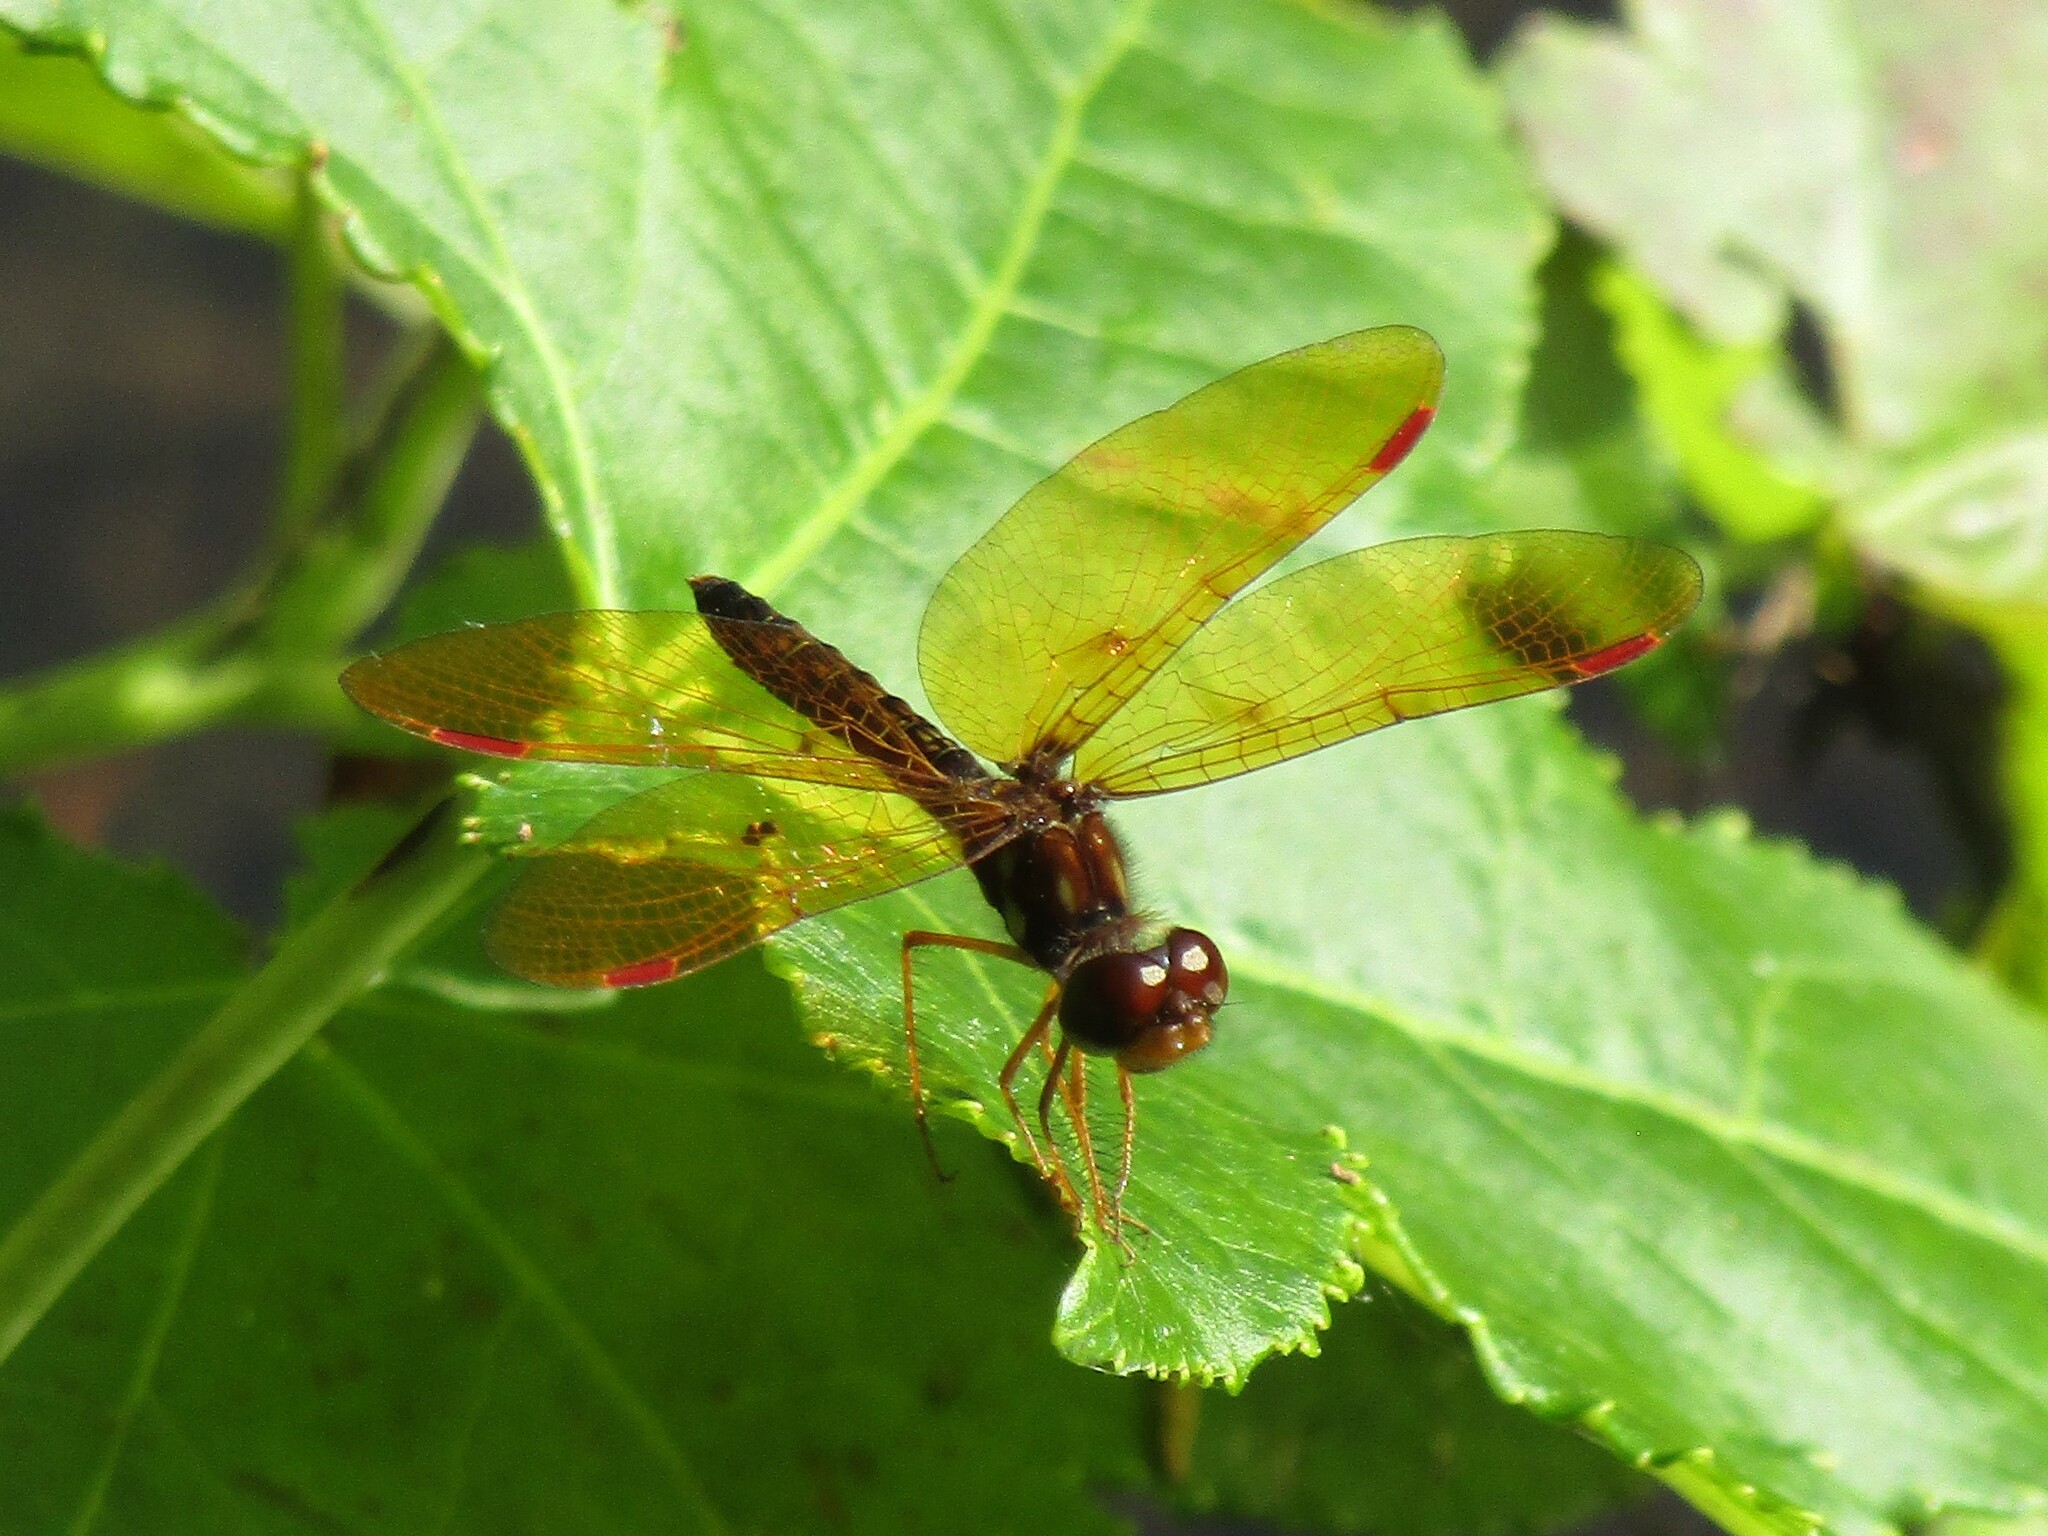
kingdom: Animalia
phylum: Arthropoda
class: Insecta
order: Odonata
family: Libellulidae
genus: Perithemis
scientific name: Perithemis tenera
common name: Eastern amberwing
